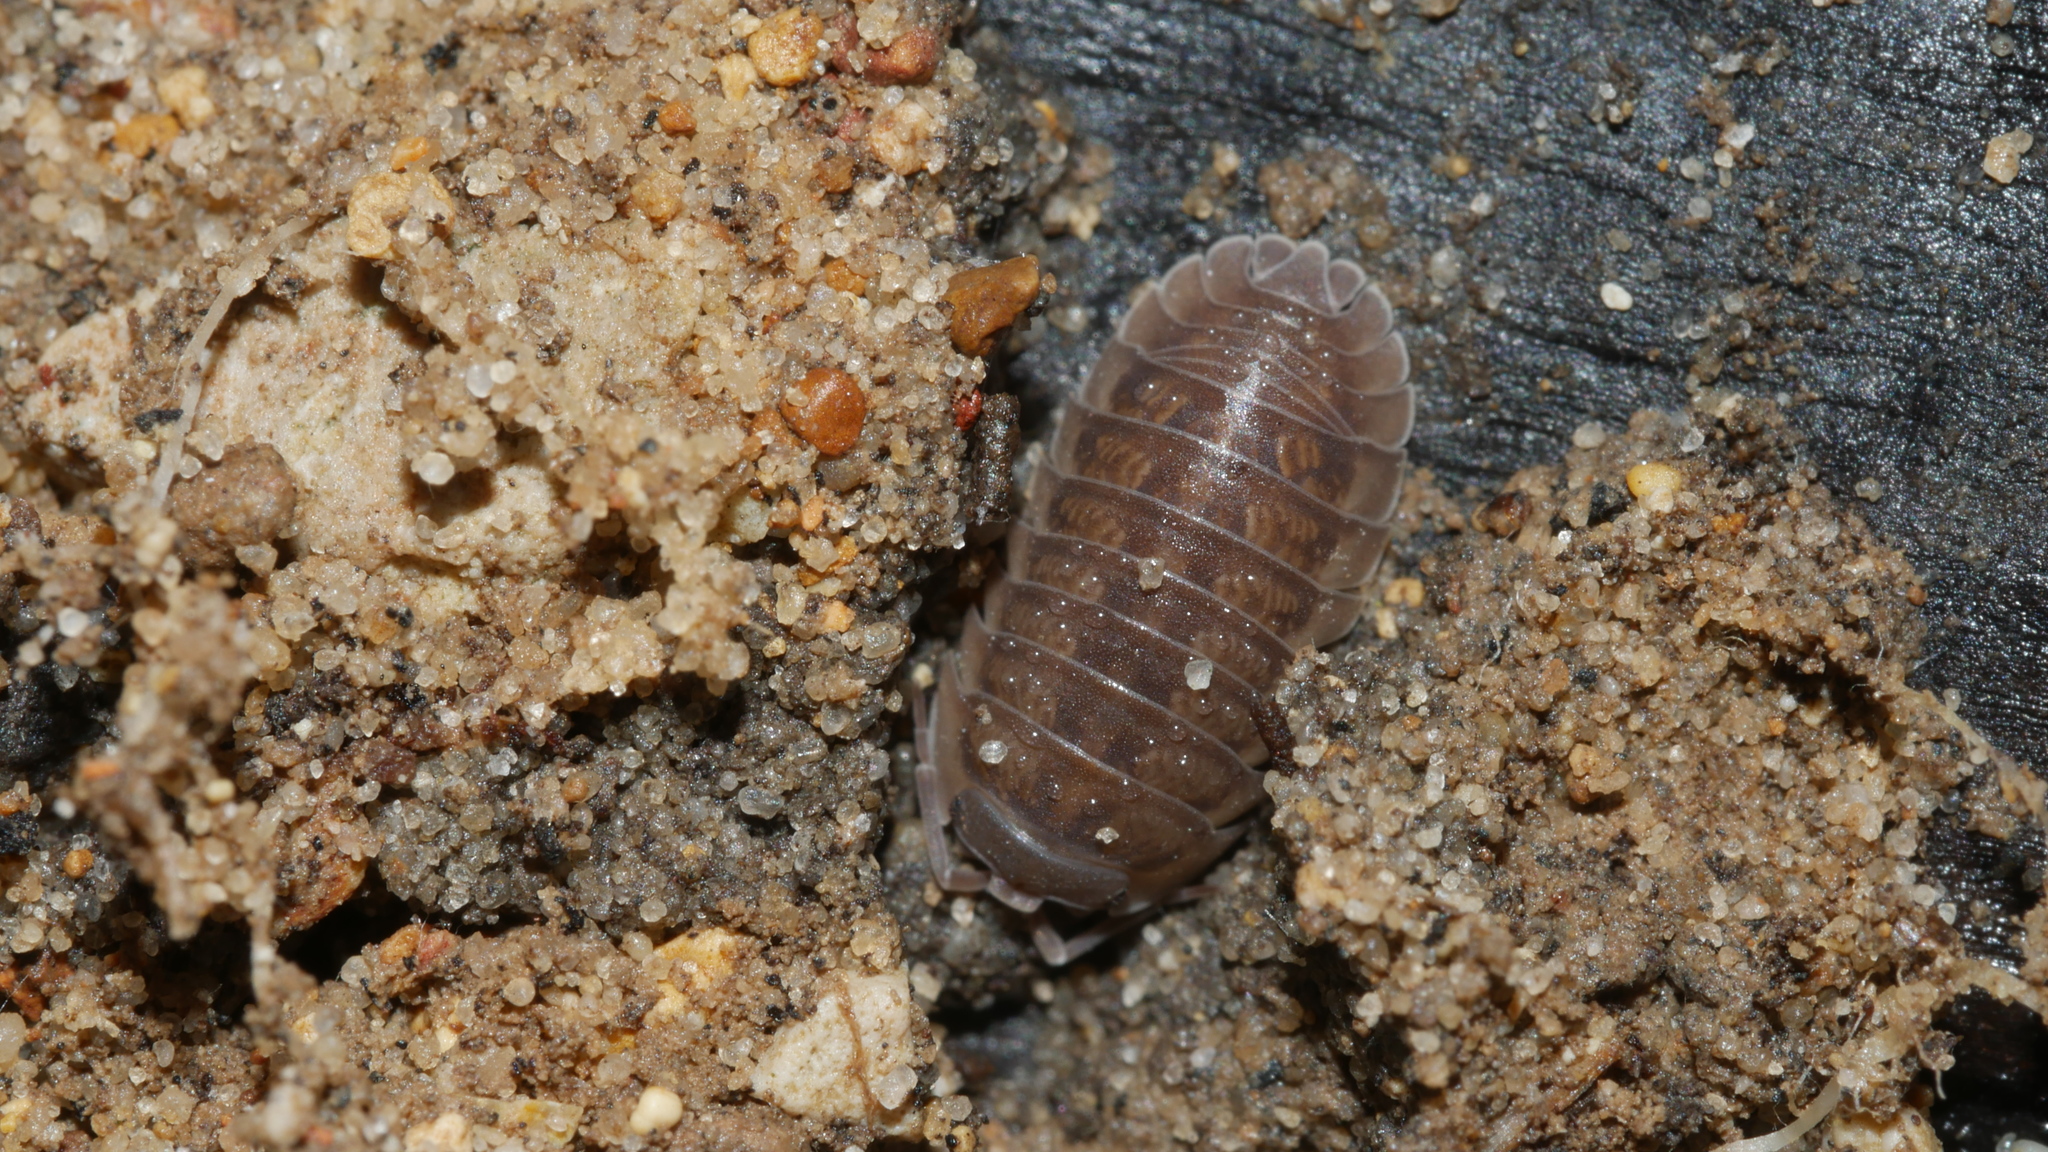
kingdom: Animalia
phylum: Arthropoda
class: Malacostraca
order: Isopoda
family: Armadillidiidae
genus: Armadillidium
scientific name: Armadillidium nasatum
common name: Isopod
